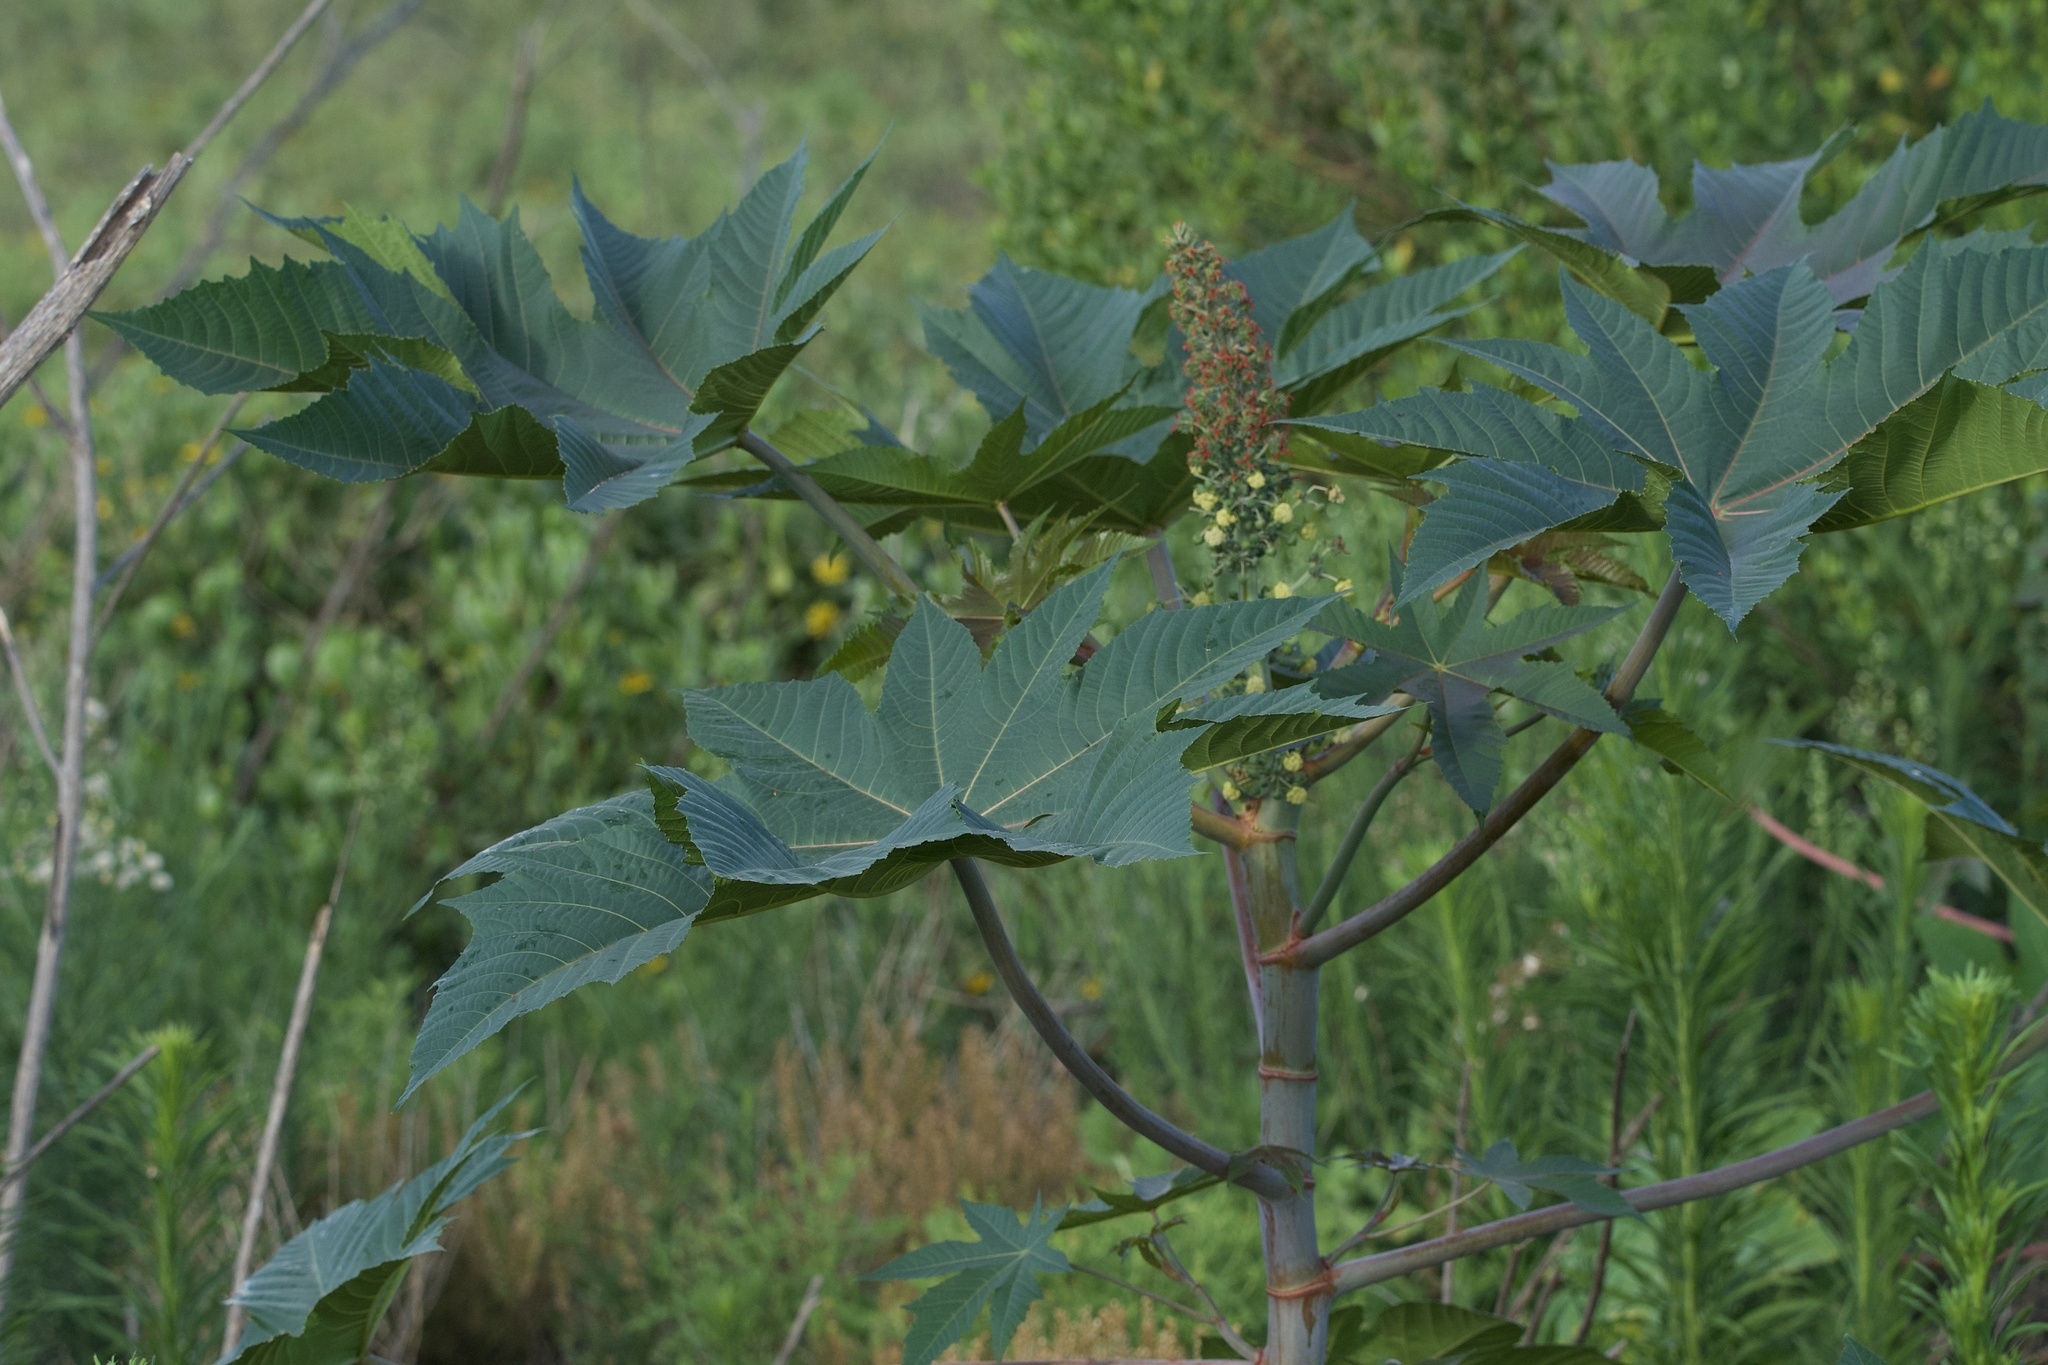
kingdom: Plantae
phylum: Tracheophyta
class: Magnoliopsida
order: Malpighiales
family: Euphorbiaceae
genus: Ricinus
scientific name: Ricinus communis
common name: Castor-oil-plant
